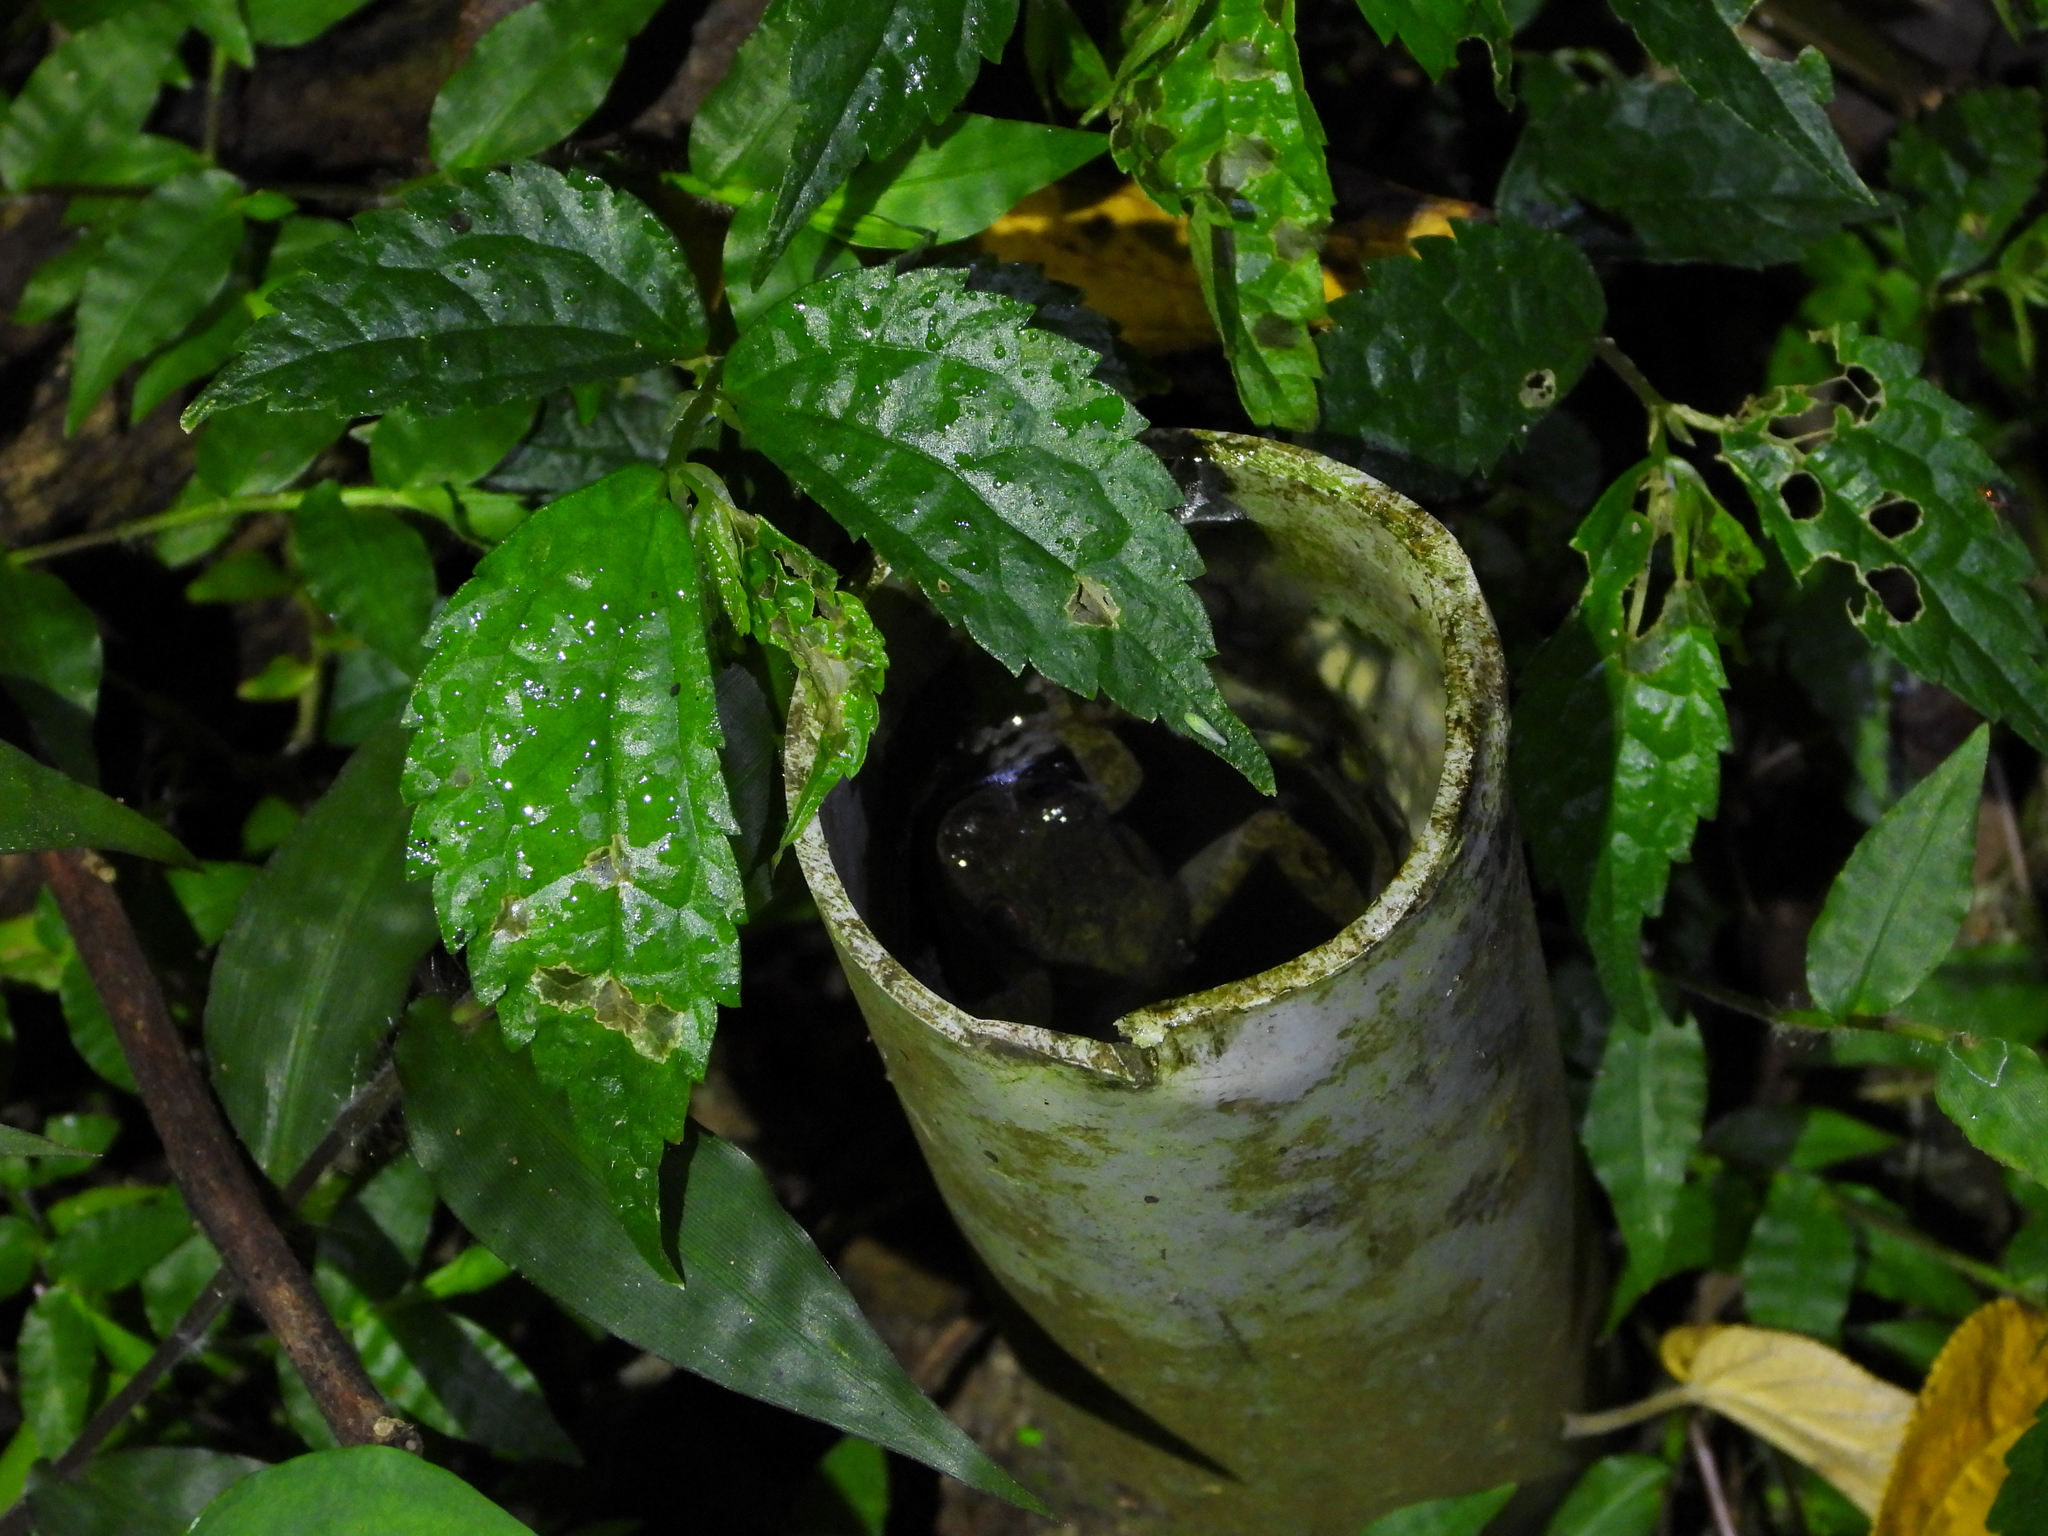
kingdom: Animalia
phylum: Chordata
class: Amphibia
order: Anura
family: Rhacophoridae
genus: Kurixalus
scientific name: Kurixalus eiffingeri
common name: Eiffinger’s treefrog
